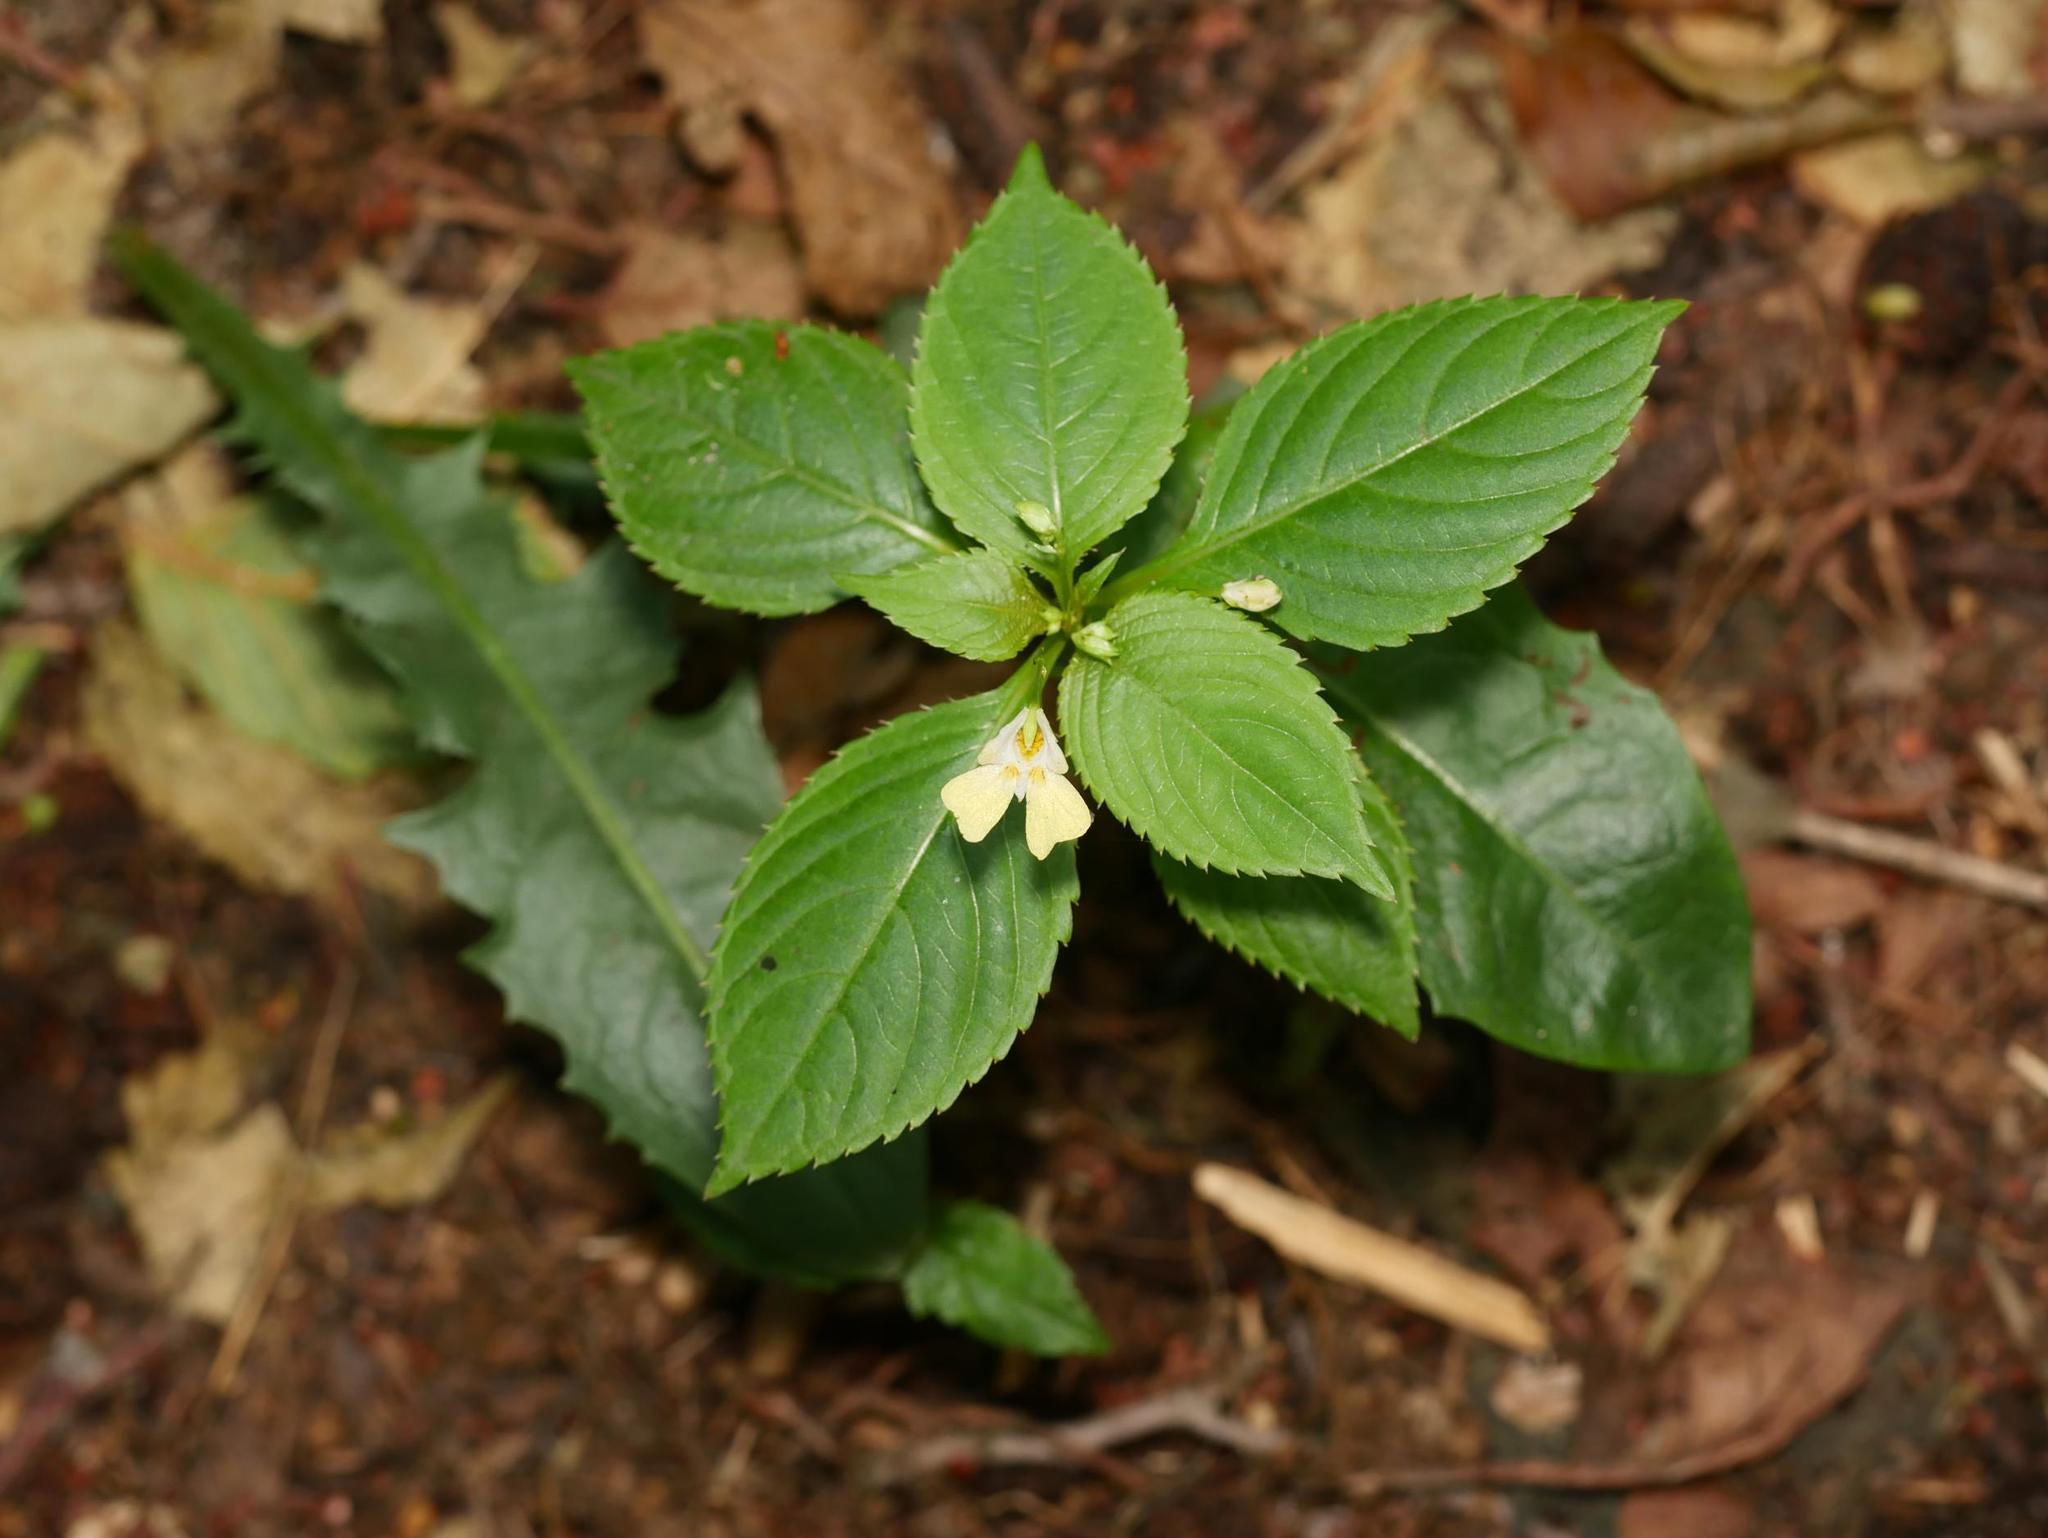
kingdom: Plantae
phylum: Tracheophyta
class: Magnoliopsida
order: Ericales
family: Balsaminaceae
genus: Impatiens
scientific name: Impatiens parviflora
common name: Small balsam
